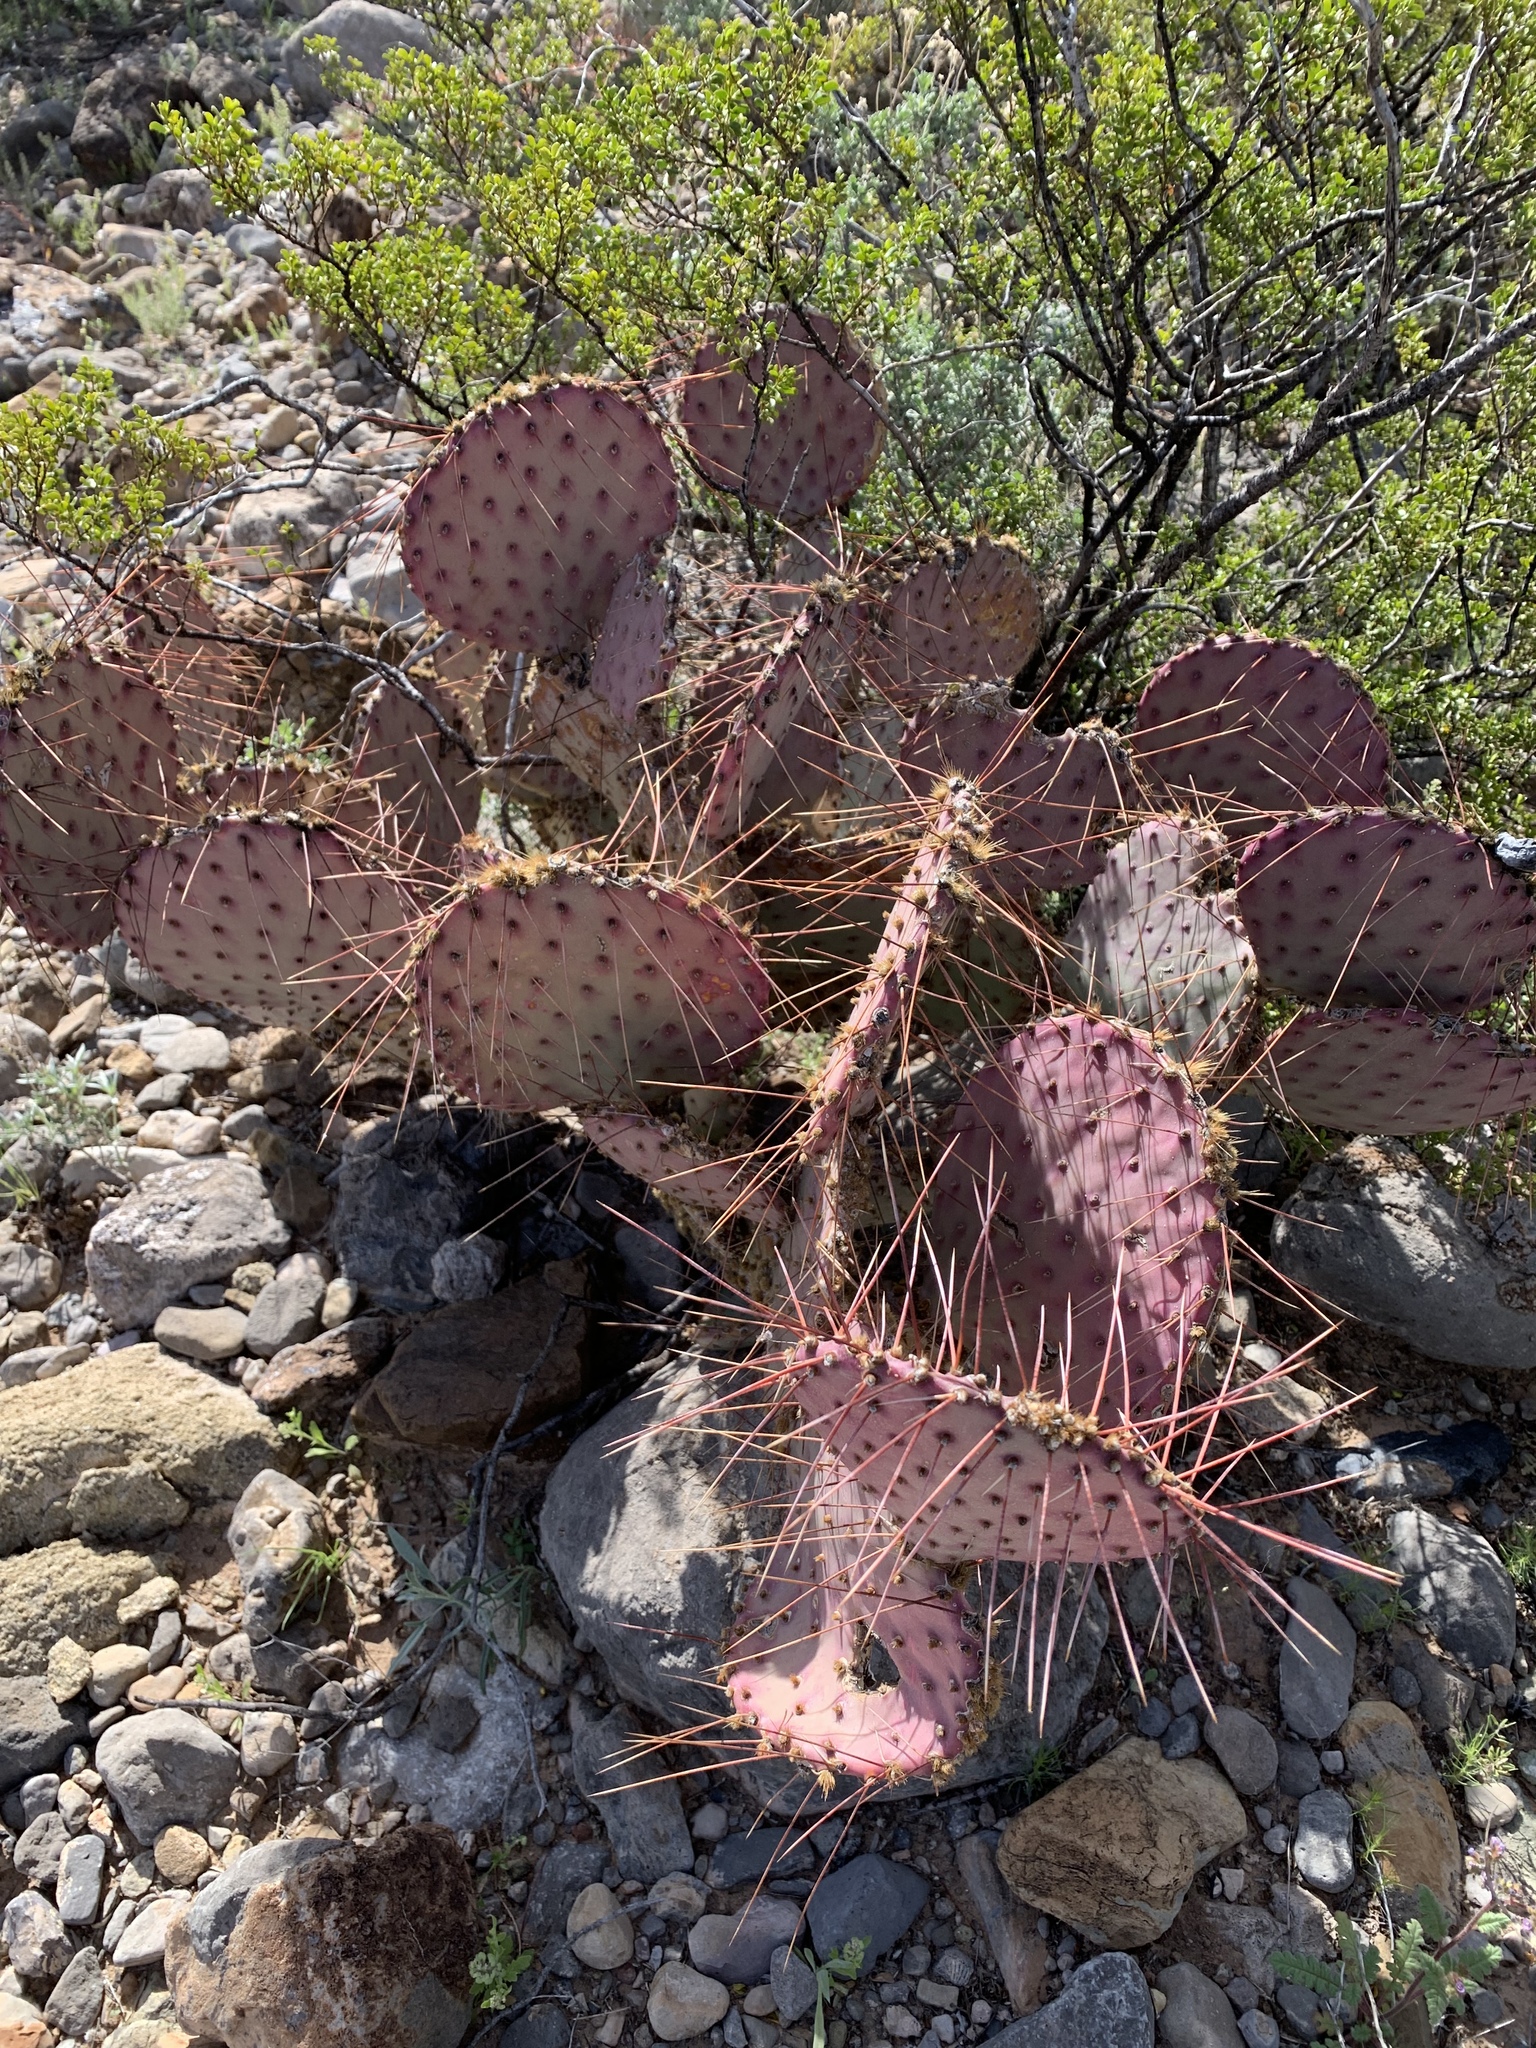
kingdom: Plantae
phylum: Tracheophyta
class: Magnoliopsida
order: Caryophyllales
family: Cactaceae
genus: Opuntia
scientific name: Opuntia macrocentra
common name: Purple prickly-pear
